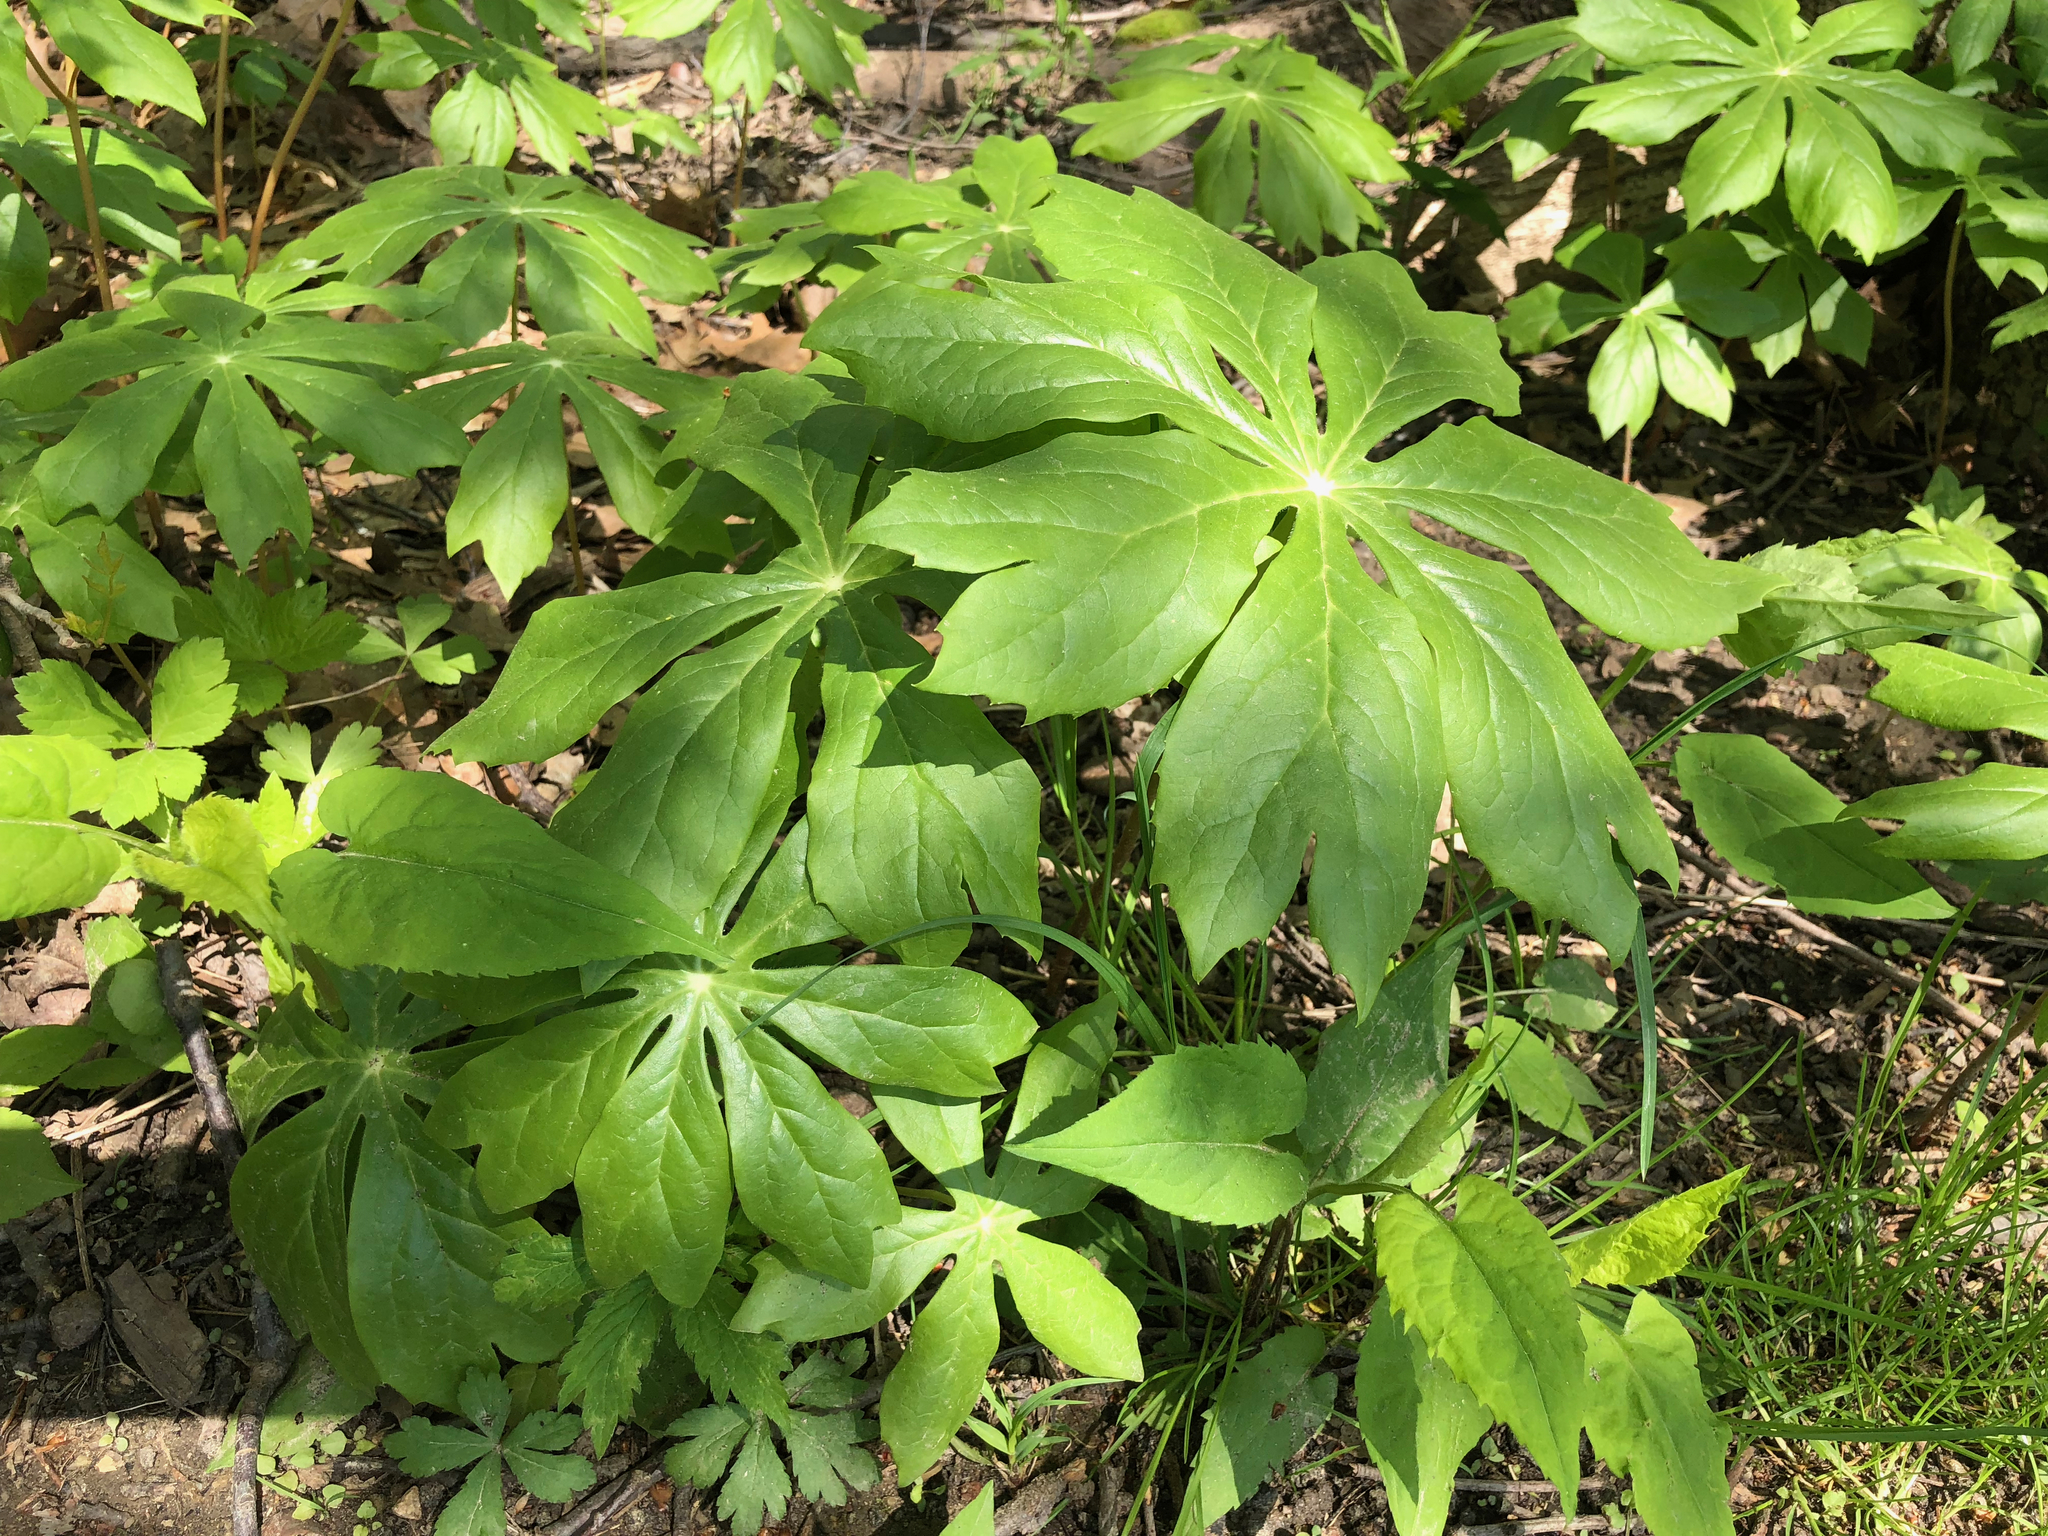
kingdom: Plantae
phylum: Tracheophyta
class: Magnoliopsida
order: Ranunculales
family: Berberidaceae
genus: Podophyllum
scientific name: Podophyllum peltatum
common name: Wild mandrake
